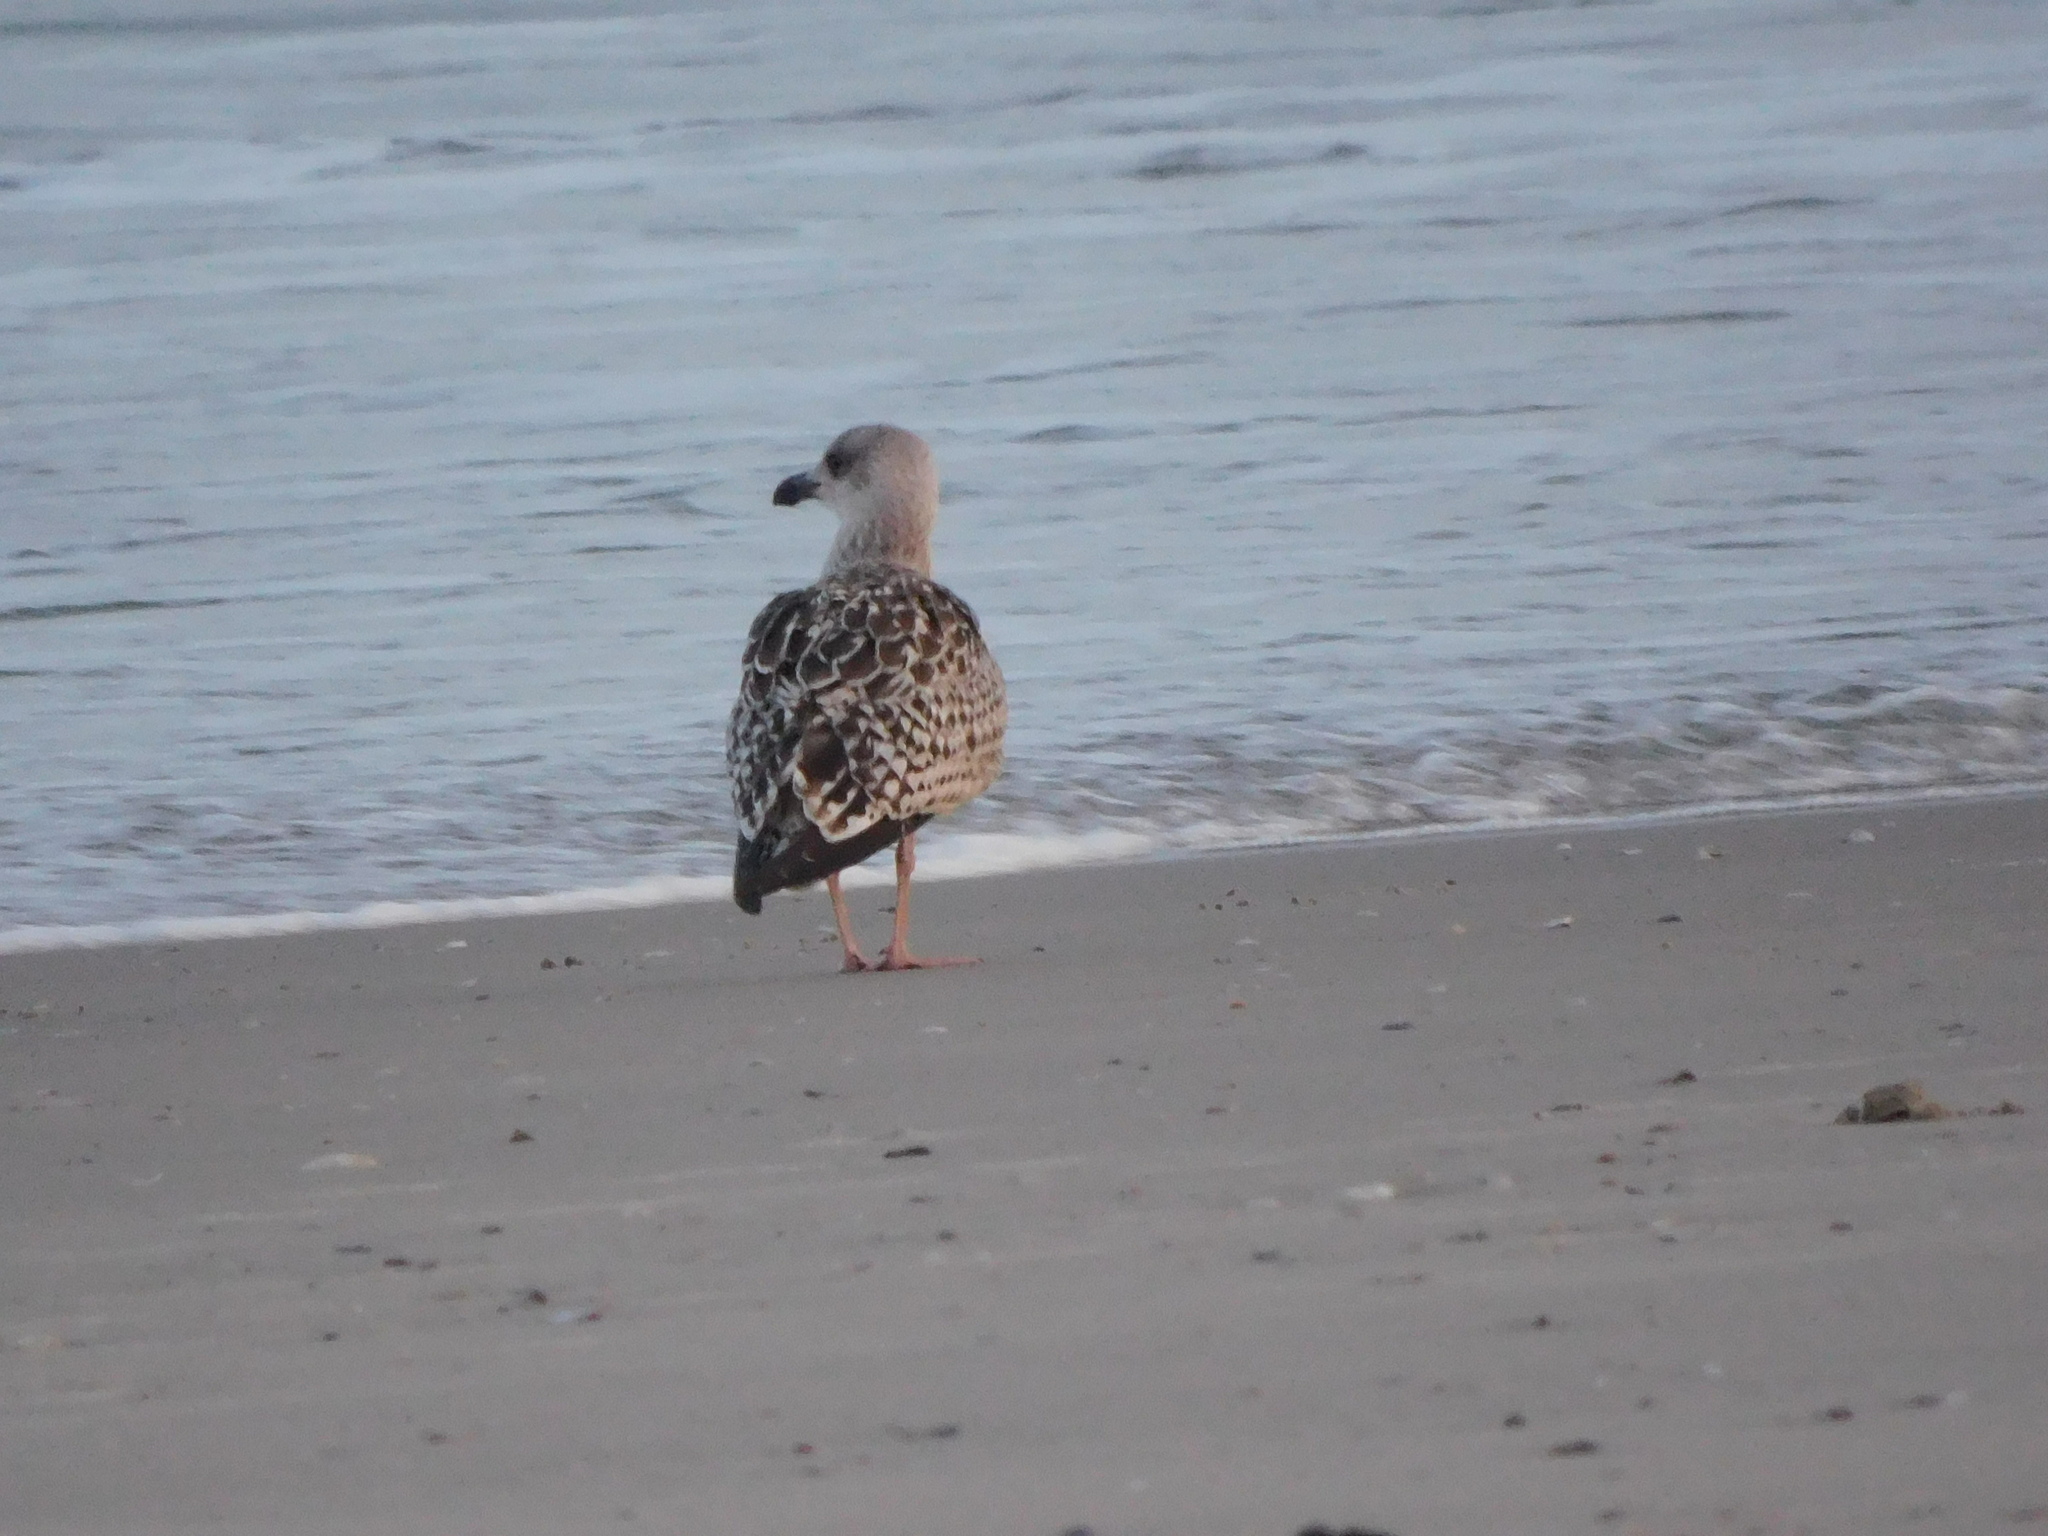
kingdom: Animalia
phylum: Chordata
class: Aves
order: Charadriiformes
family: Laridae
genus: Larus
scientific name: Larus marinus
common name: Great black-backed gull
